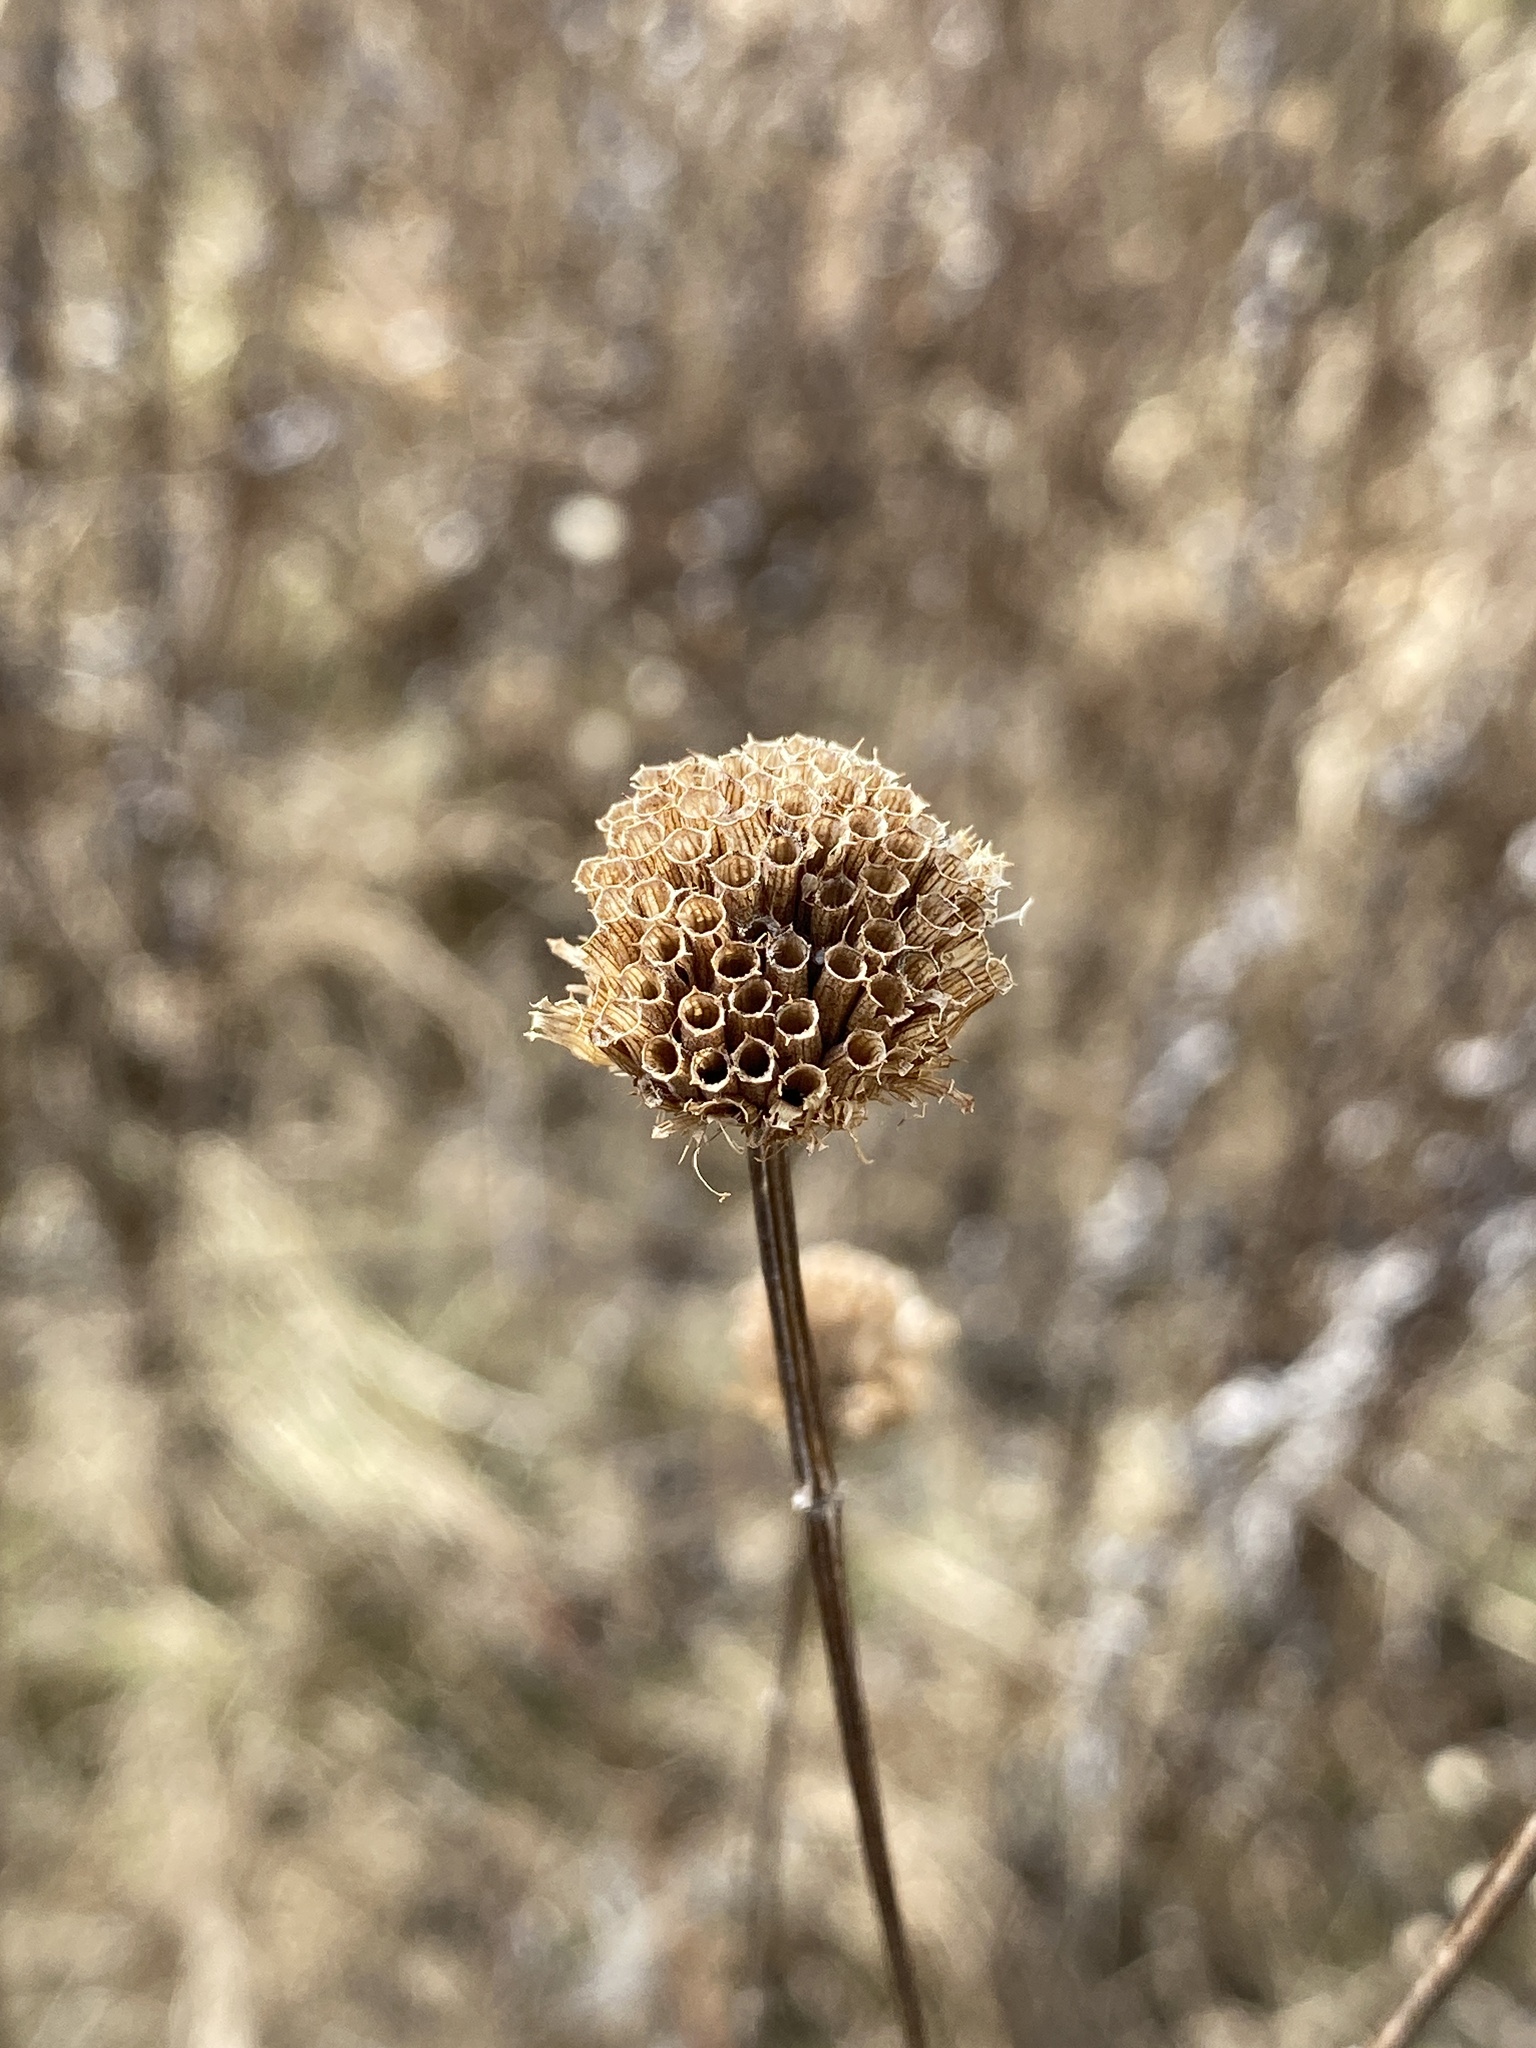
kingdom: Plantae
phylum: Tracheophyta
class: Magnoliopsida
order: Lamiales
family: Lamiaceae
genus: Monarda
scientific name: Monarda fistulosa
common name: Purple beebalm
